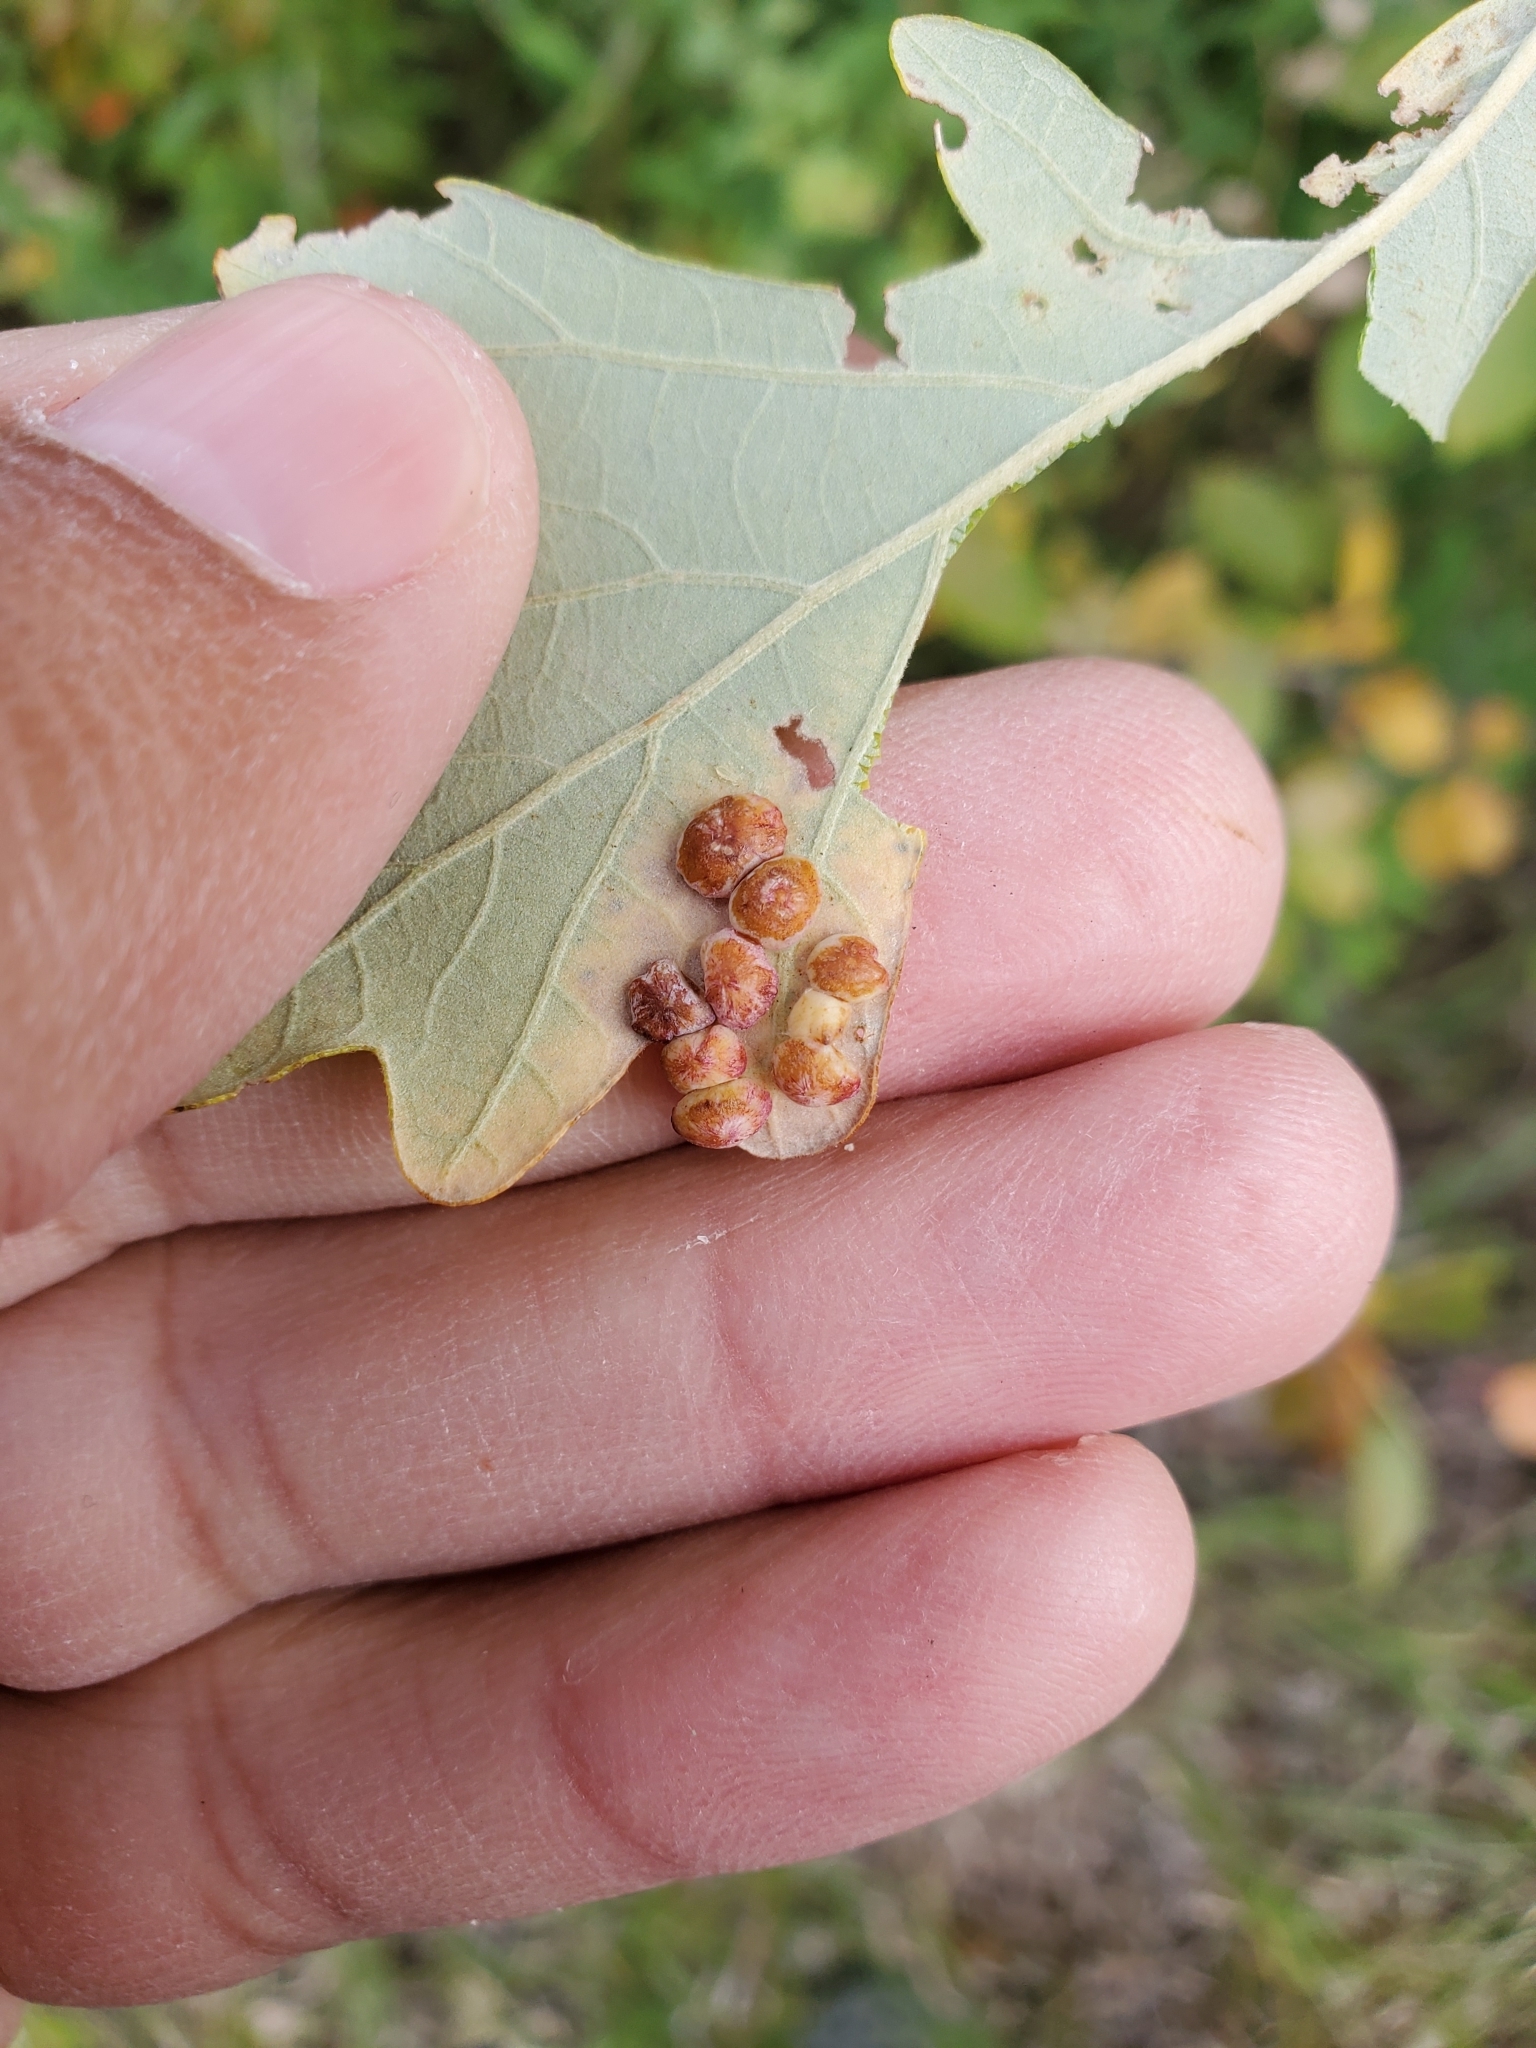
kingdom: Animalia
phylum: Arthropoda
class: Insecta
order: Hymenoptera
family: Cynipidae
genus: Phylloteras
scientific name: Phylloteras poculum
